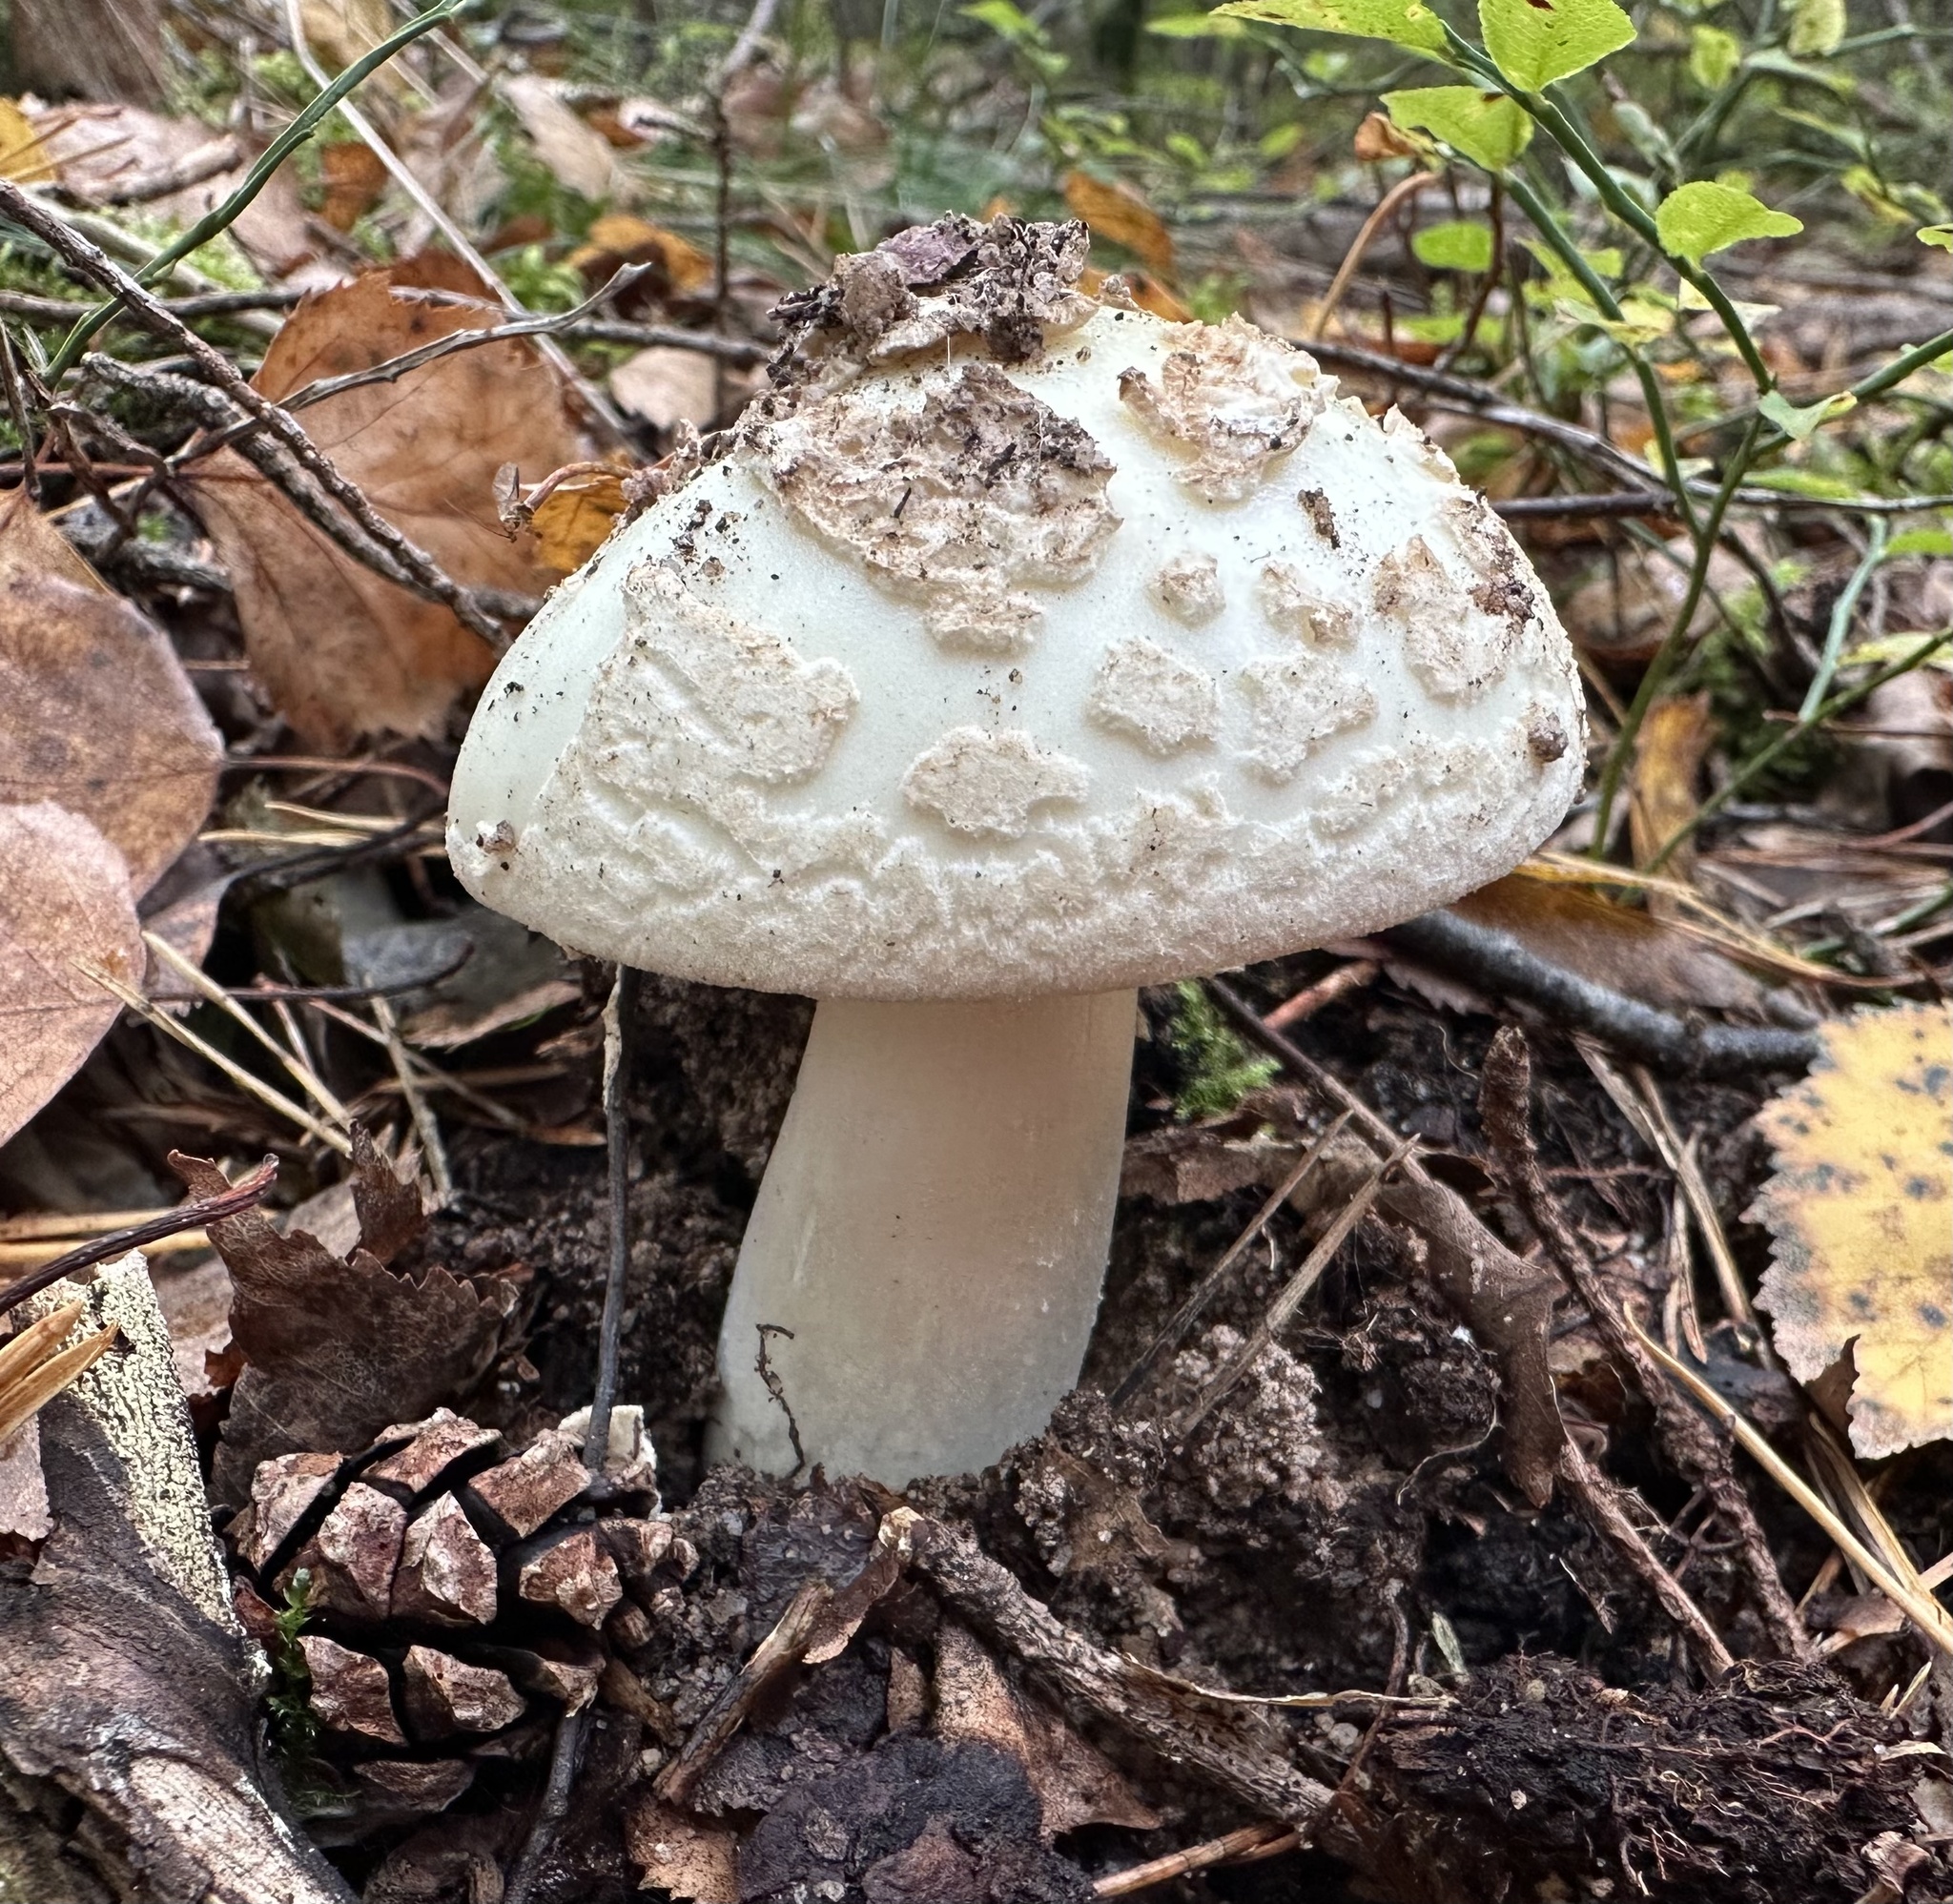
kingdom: Fungi
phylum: Basidiomycota
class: Agaricomycetes
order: Agaricales
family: Amanitaceae
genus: Amanita
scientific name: Amanita citrina
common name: False death-cap
